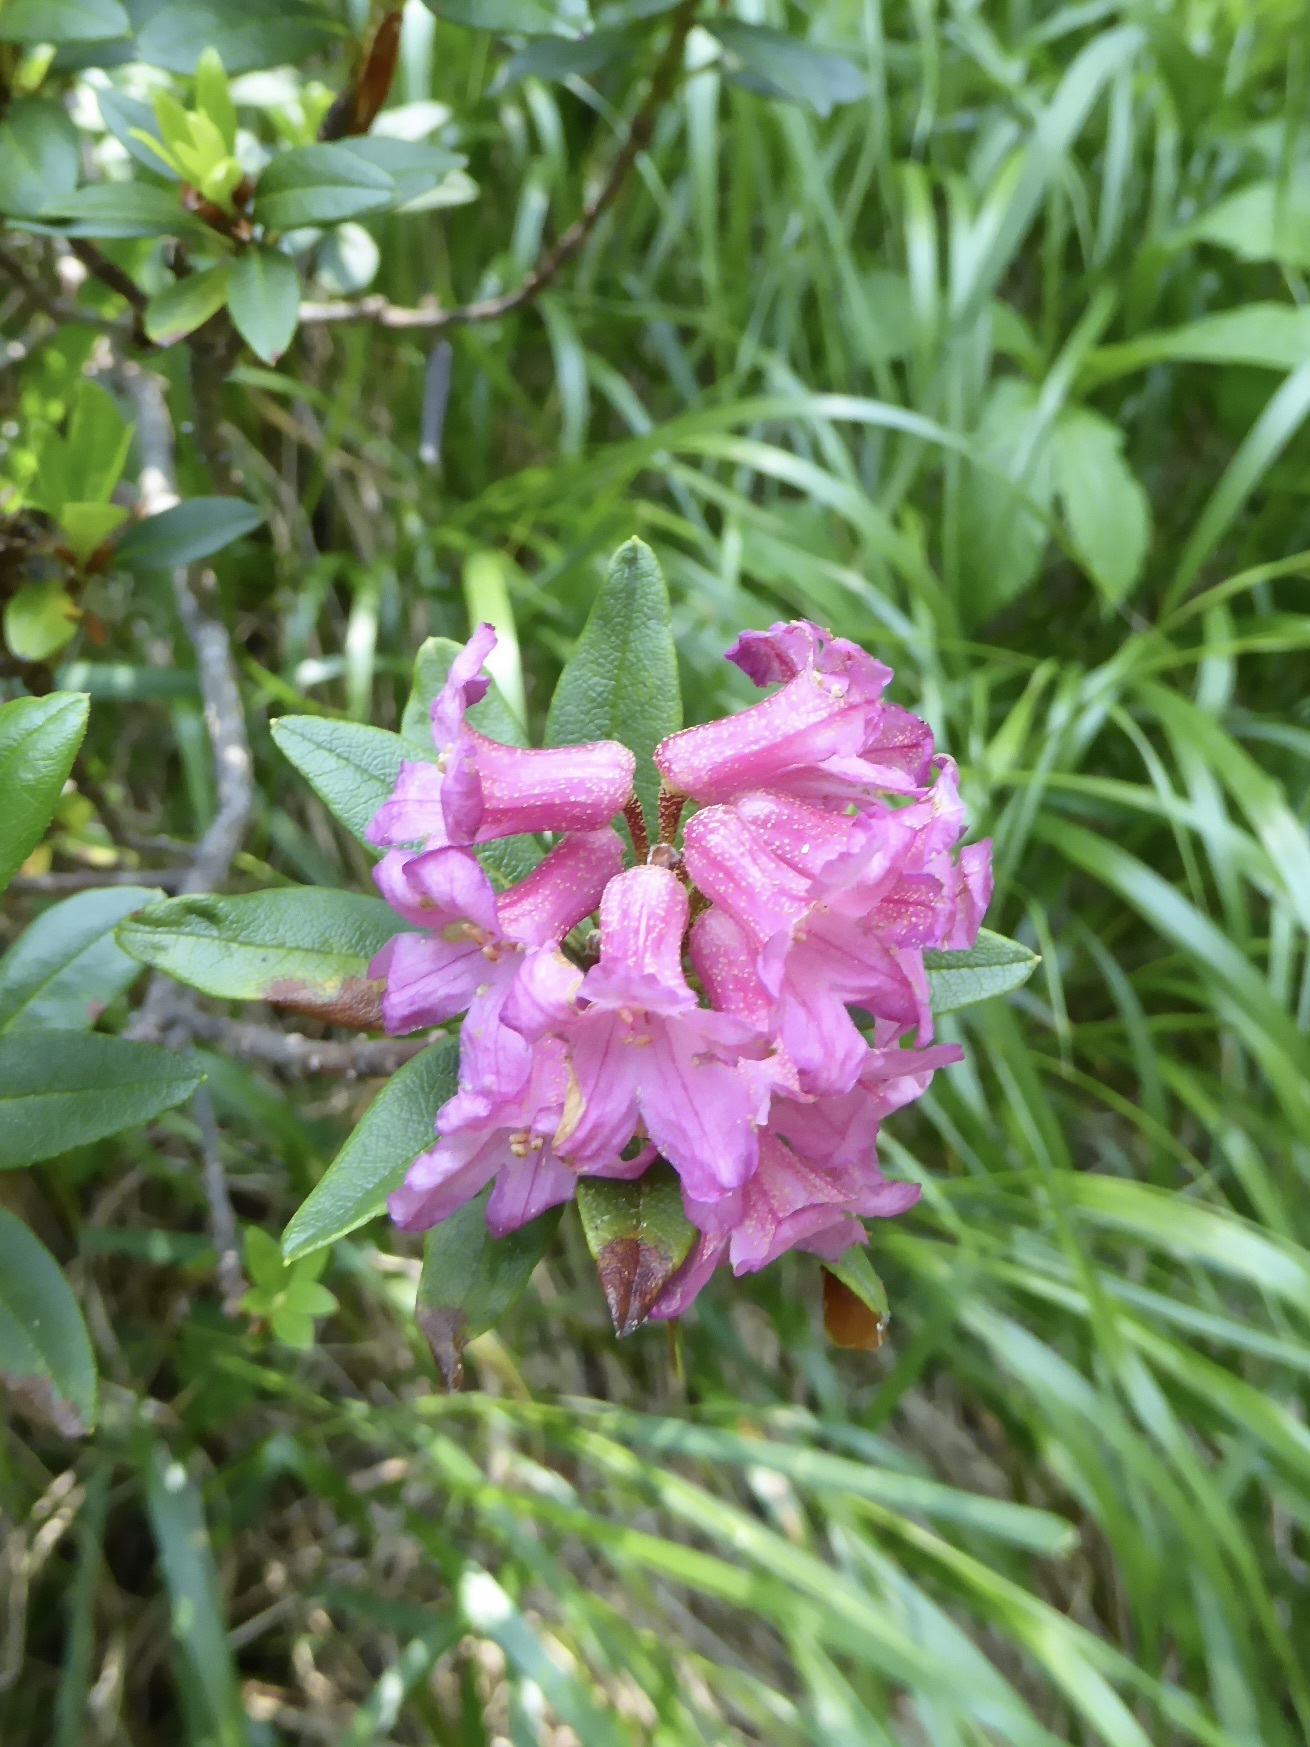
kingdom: Plantae
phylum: Tracheophyta
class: Magnoliopsida
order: Ericales
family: Ericaceae
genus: Rhododendron
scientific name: Rhododendron ferrugineum
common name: Alpenrose
